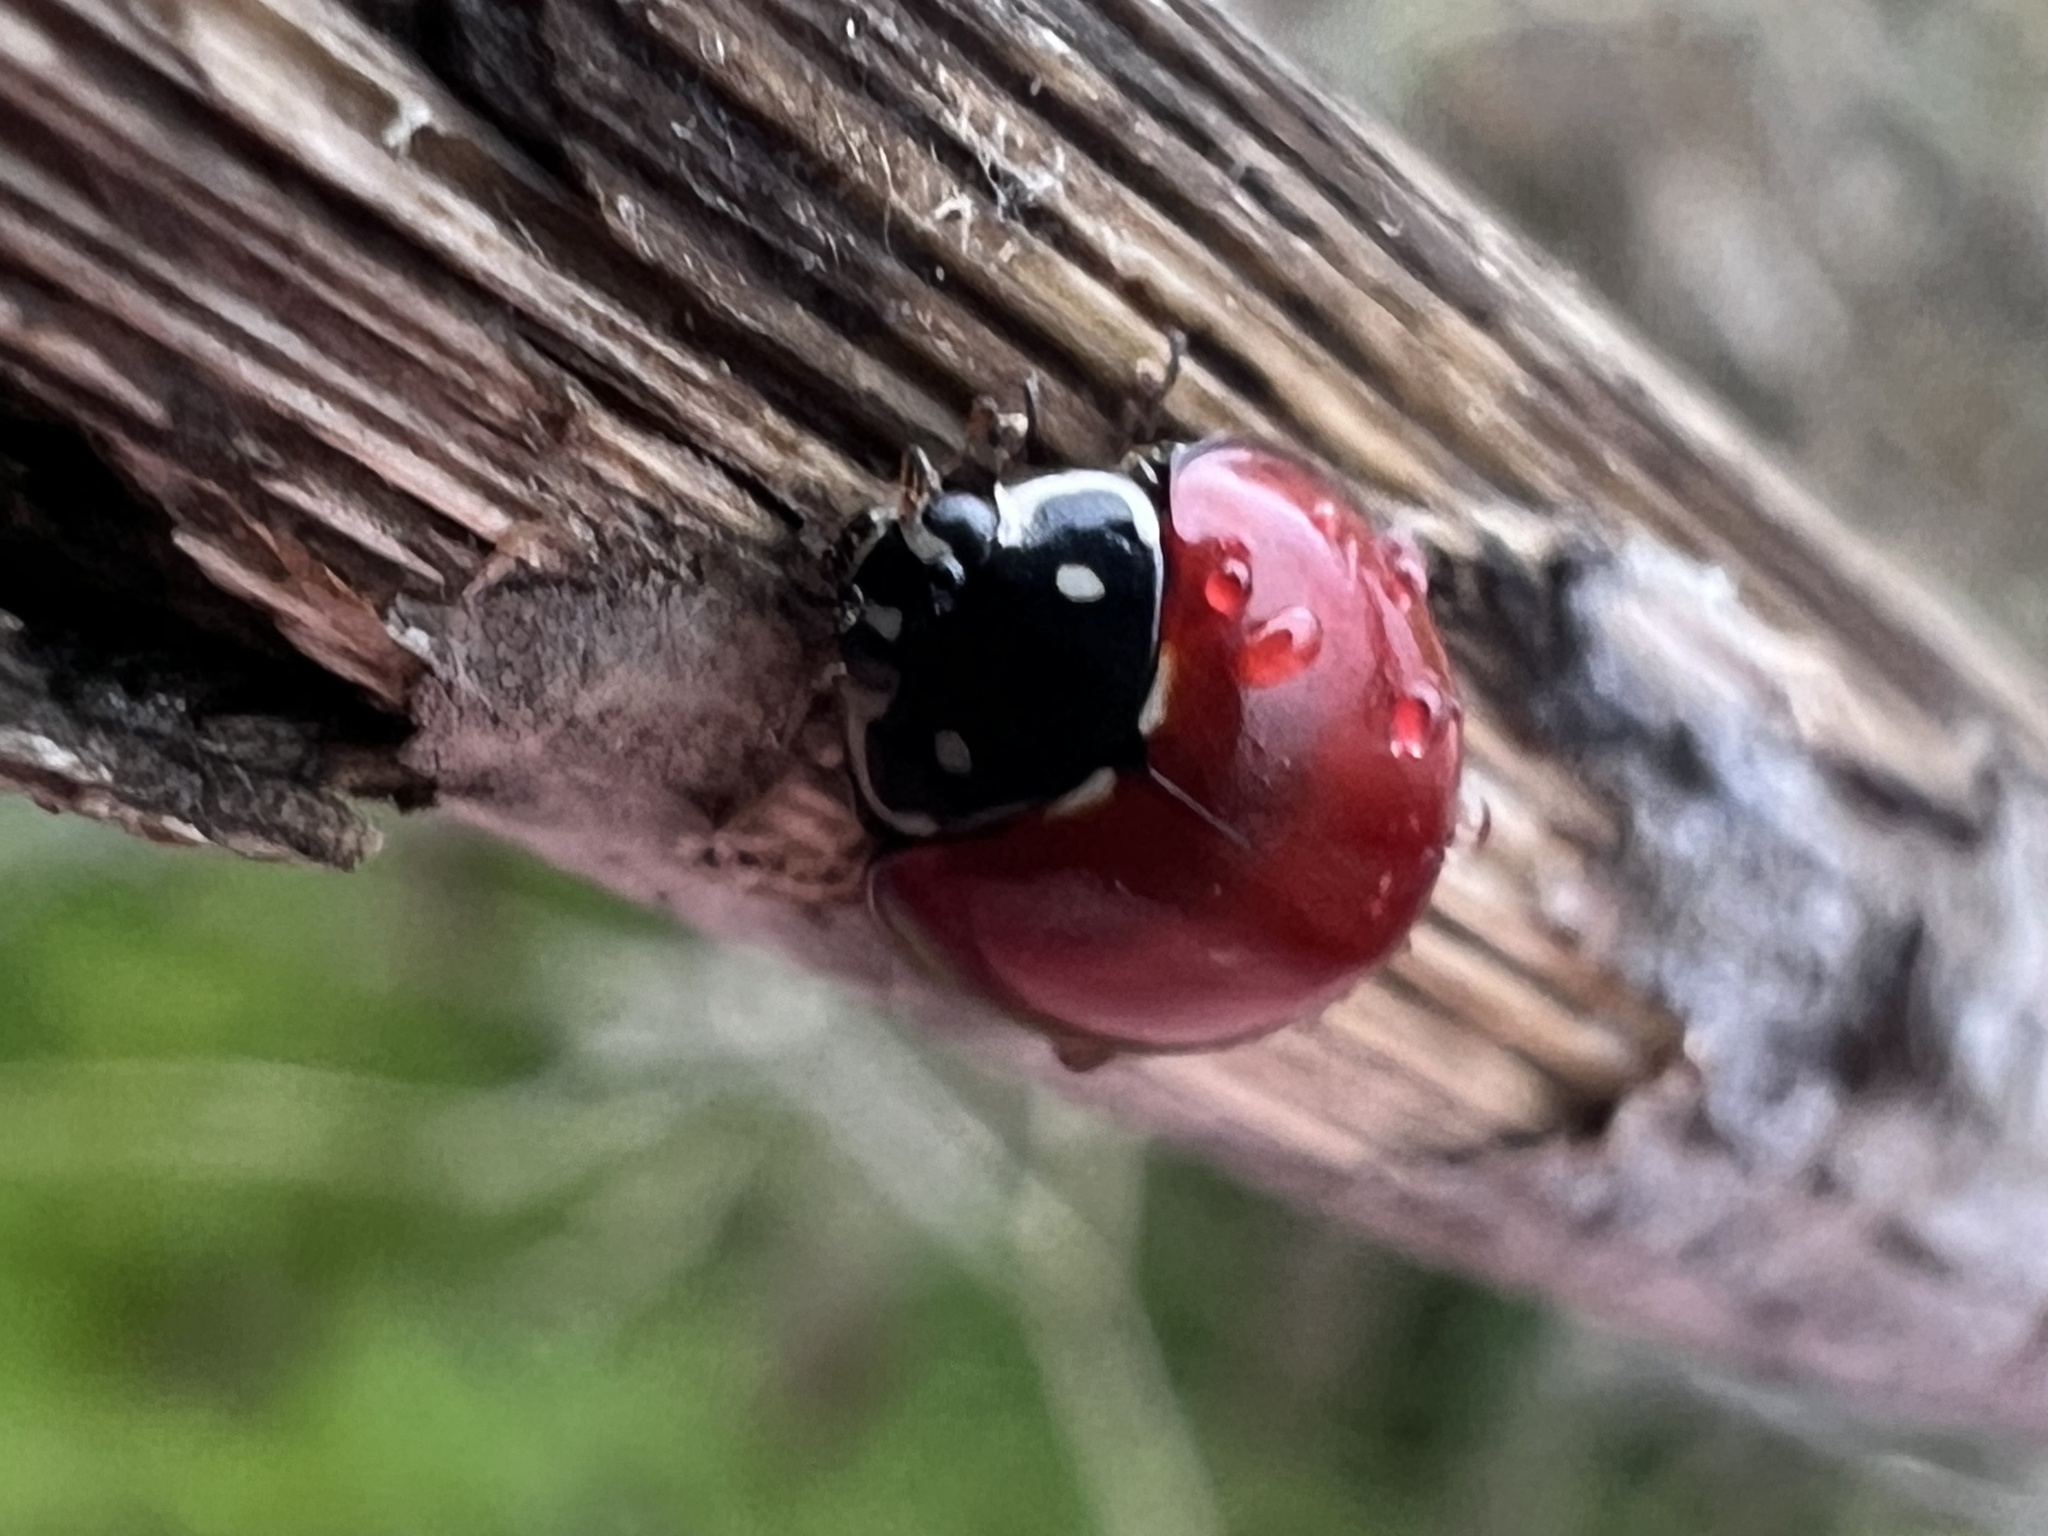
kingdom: Animalia
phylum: Arthropoda
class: Insecta
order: Coleoptera
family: Coccinellidae
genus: Cycloneda
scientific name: Cycloneda sanguinea
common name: Ladybird beetle
